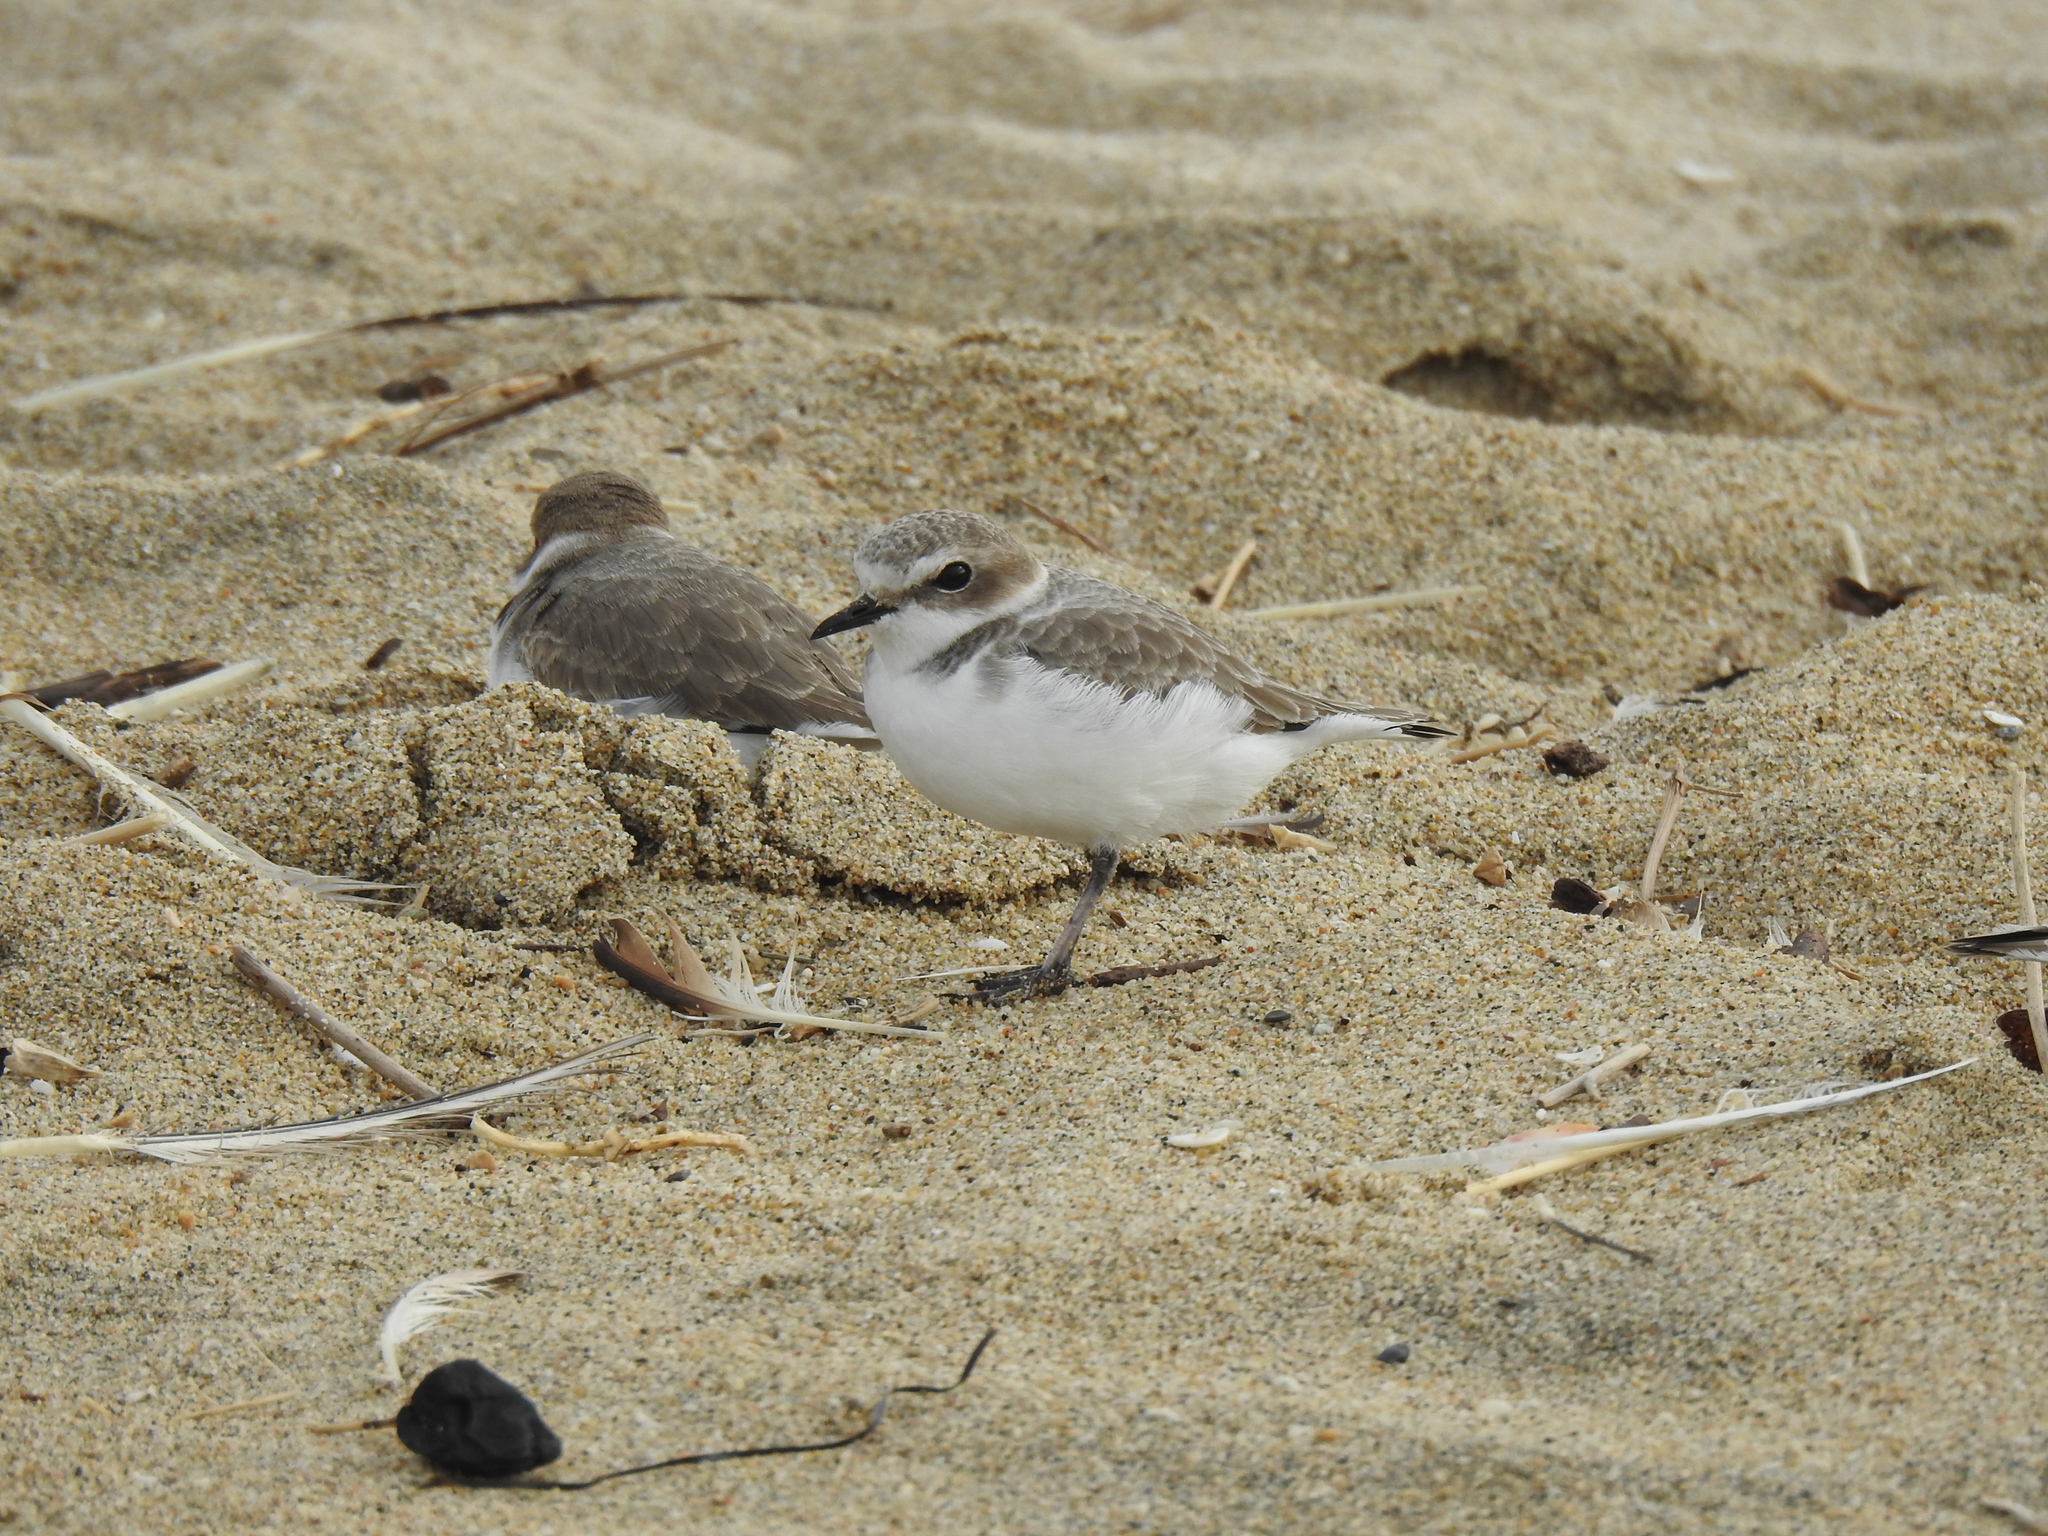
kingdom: Animalia
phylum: Chordata
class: Aves
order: Charadriiformes
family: Charadriidae
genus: Anarhynchus
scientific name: Anarhynchus
